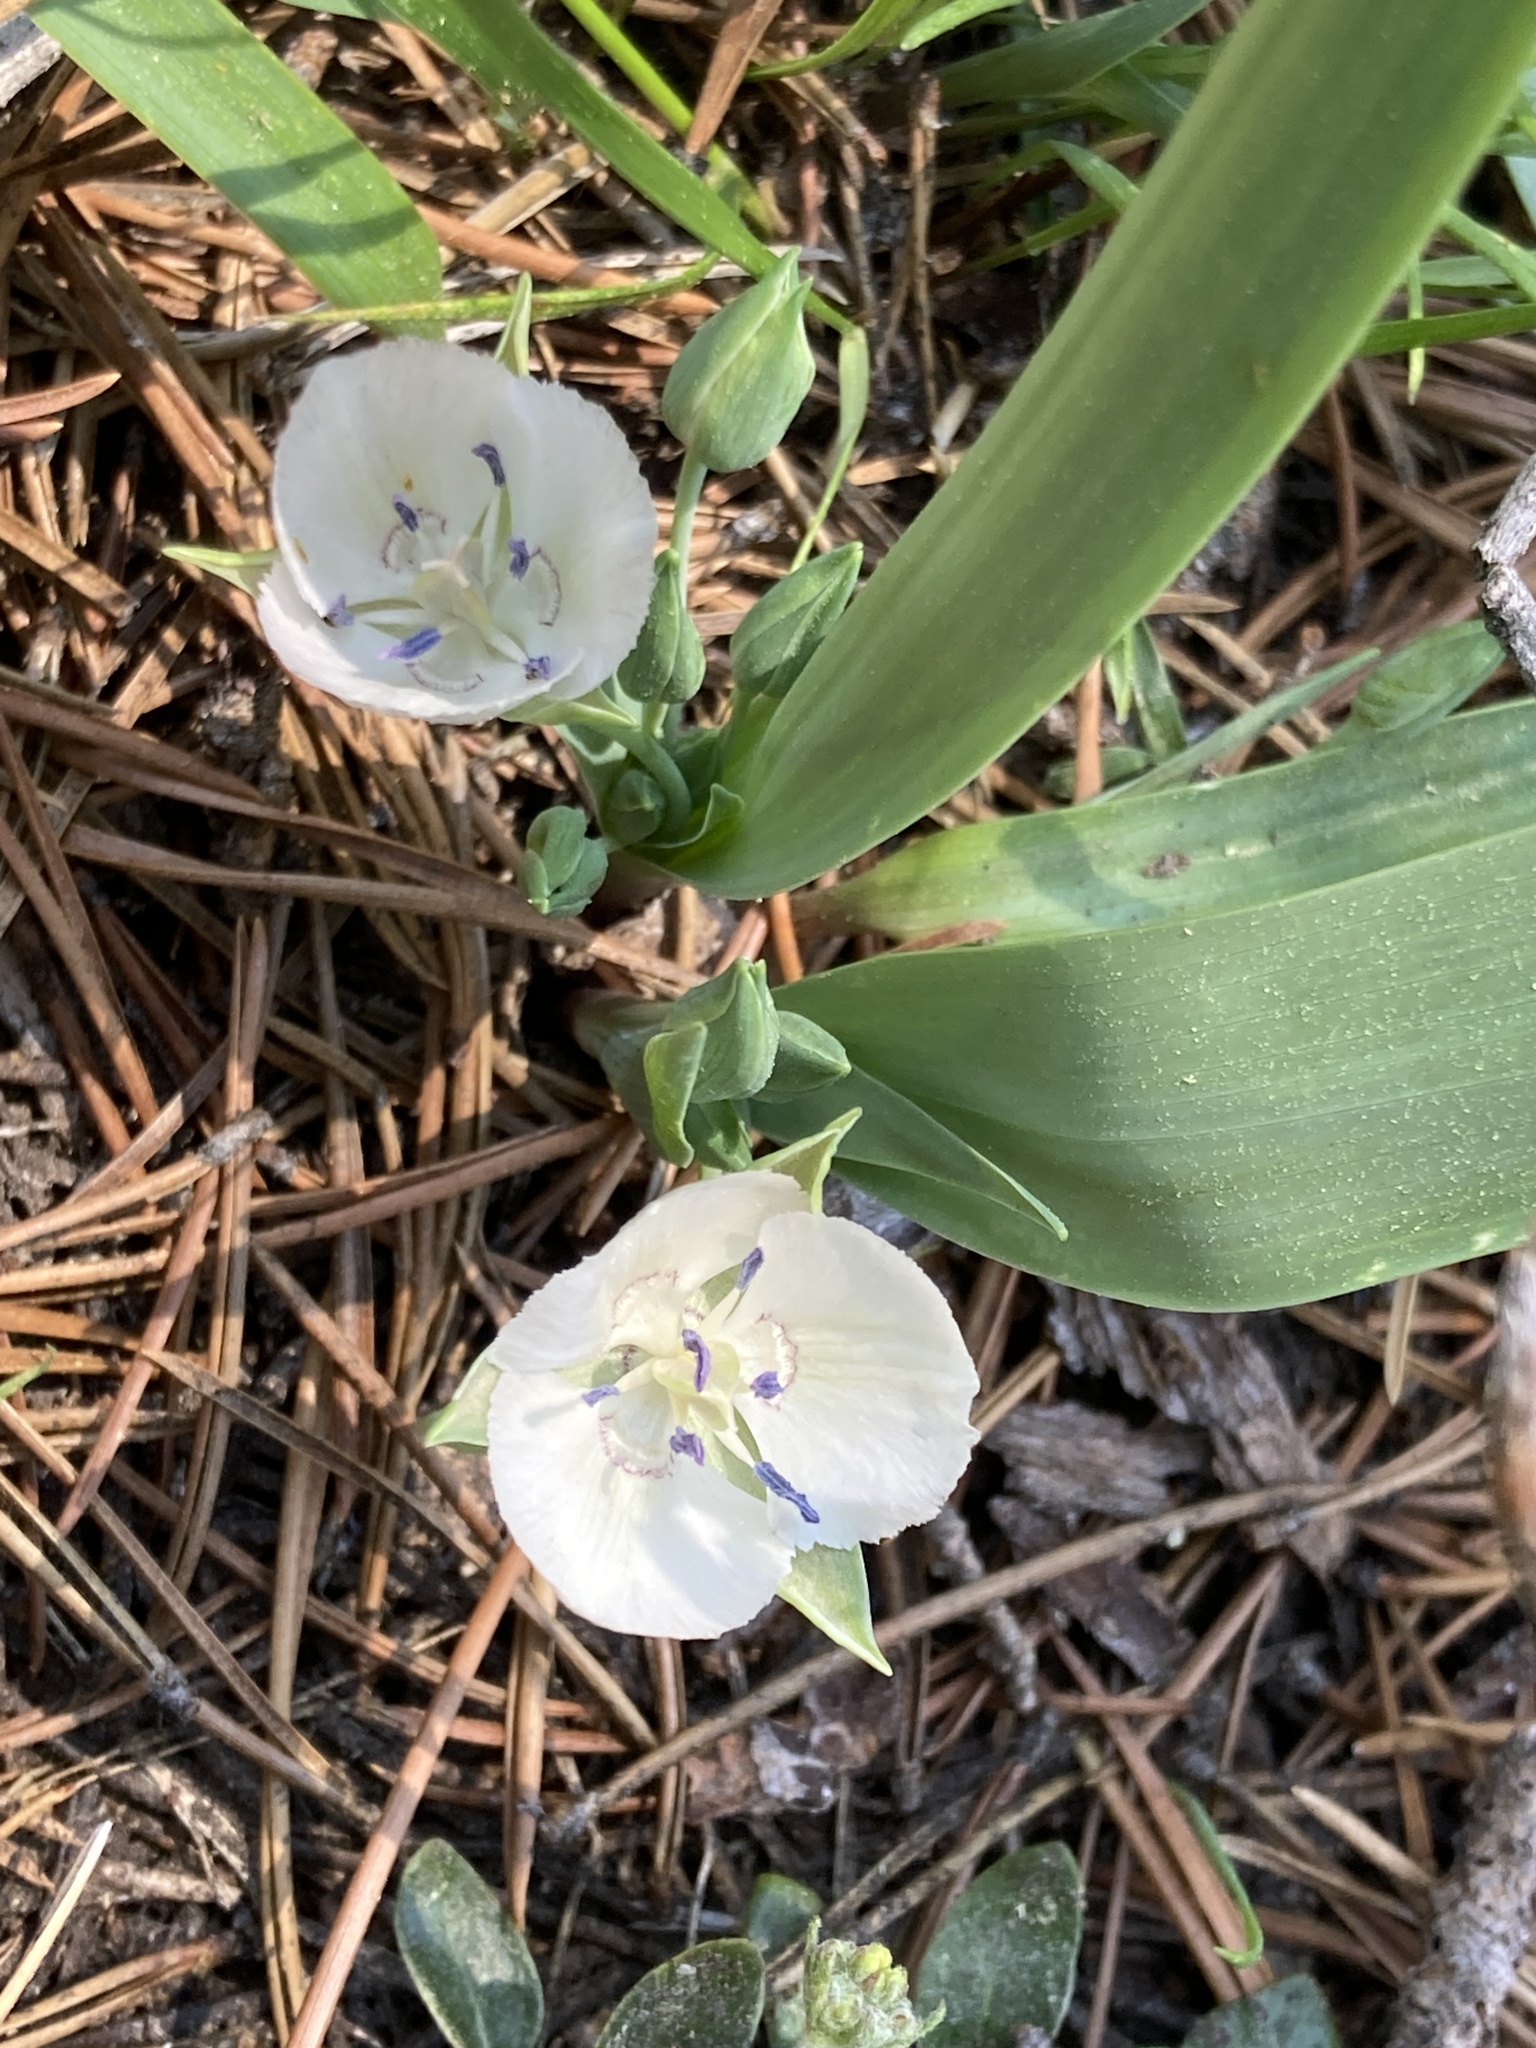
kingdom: Plantae
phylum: Tracheophyta
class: Liliopsida
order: Liliales
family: Liliaceae
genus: Calochortus
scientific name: Calochortus minimus
